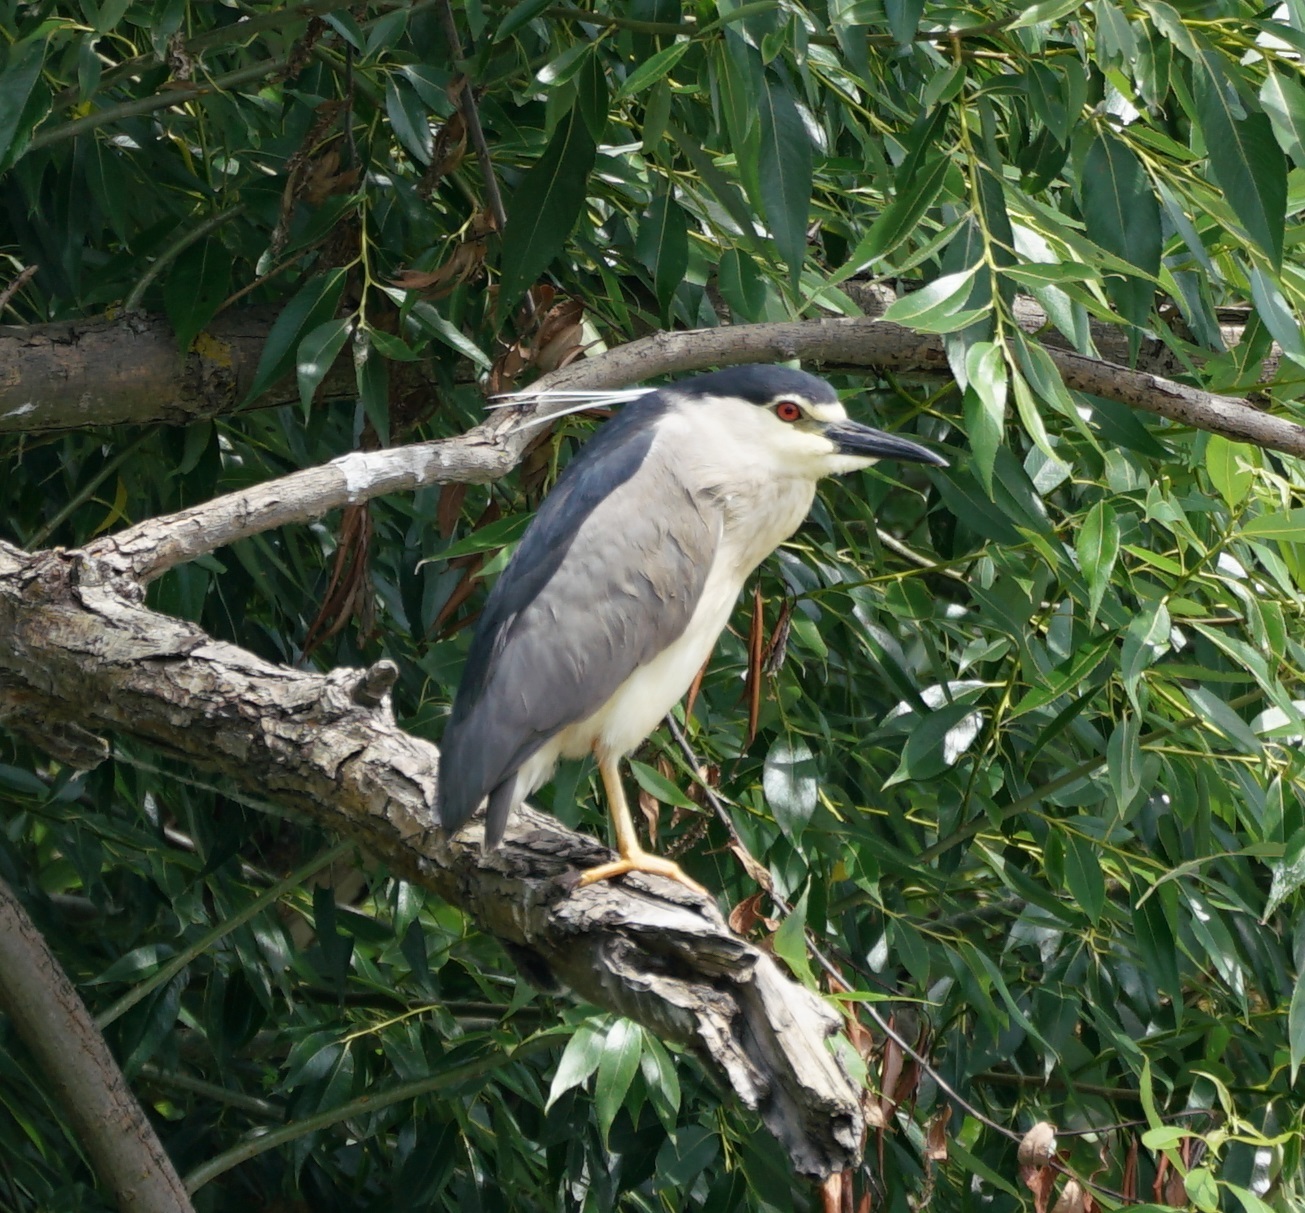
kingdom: Animalia
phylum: Chordata
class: Aves
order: Pelecaniformes
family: Ardeidae
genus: Nycticorax
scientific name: Nycticorax nycticorax
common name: Black-crowned night heron
